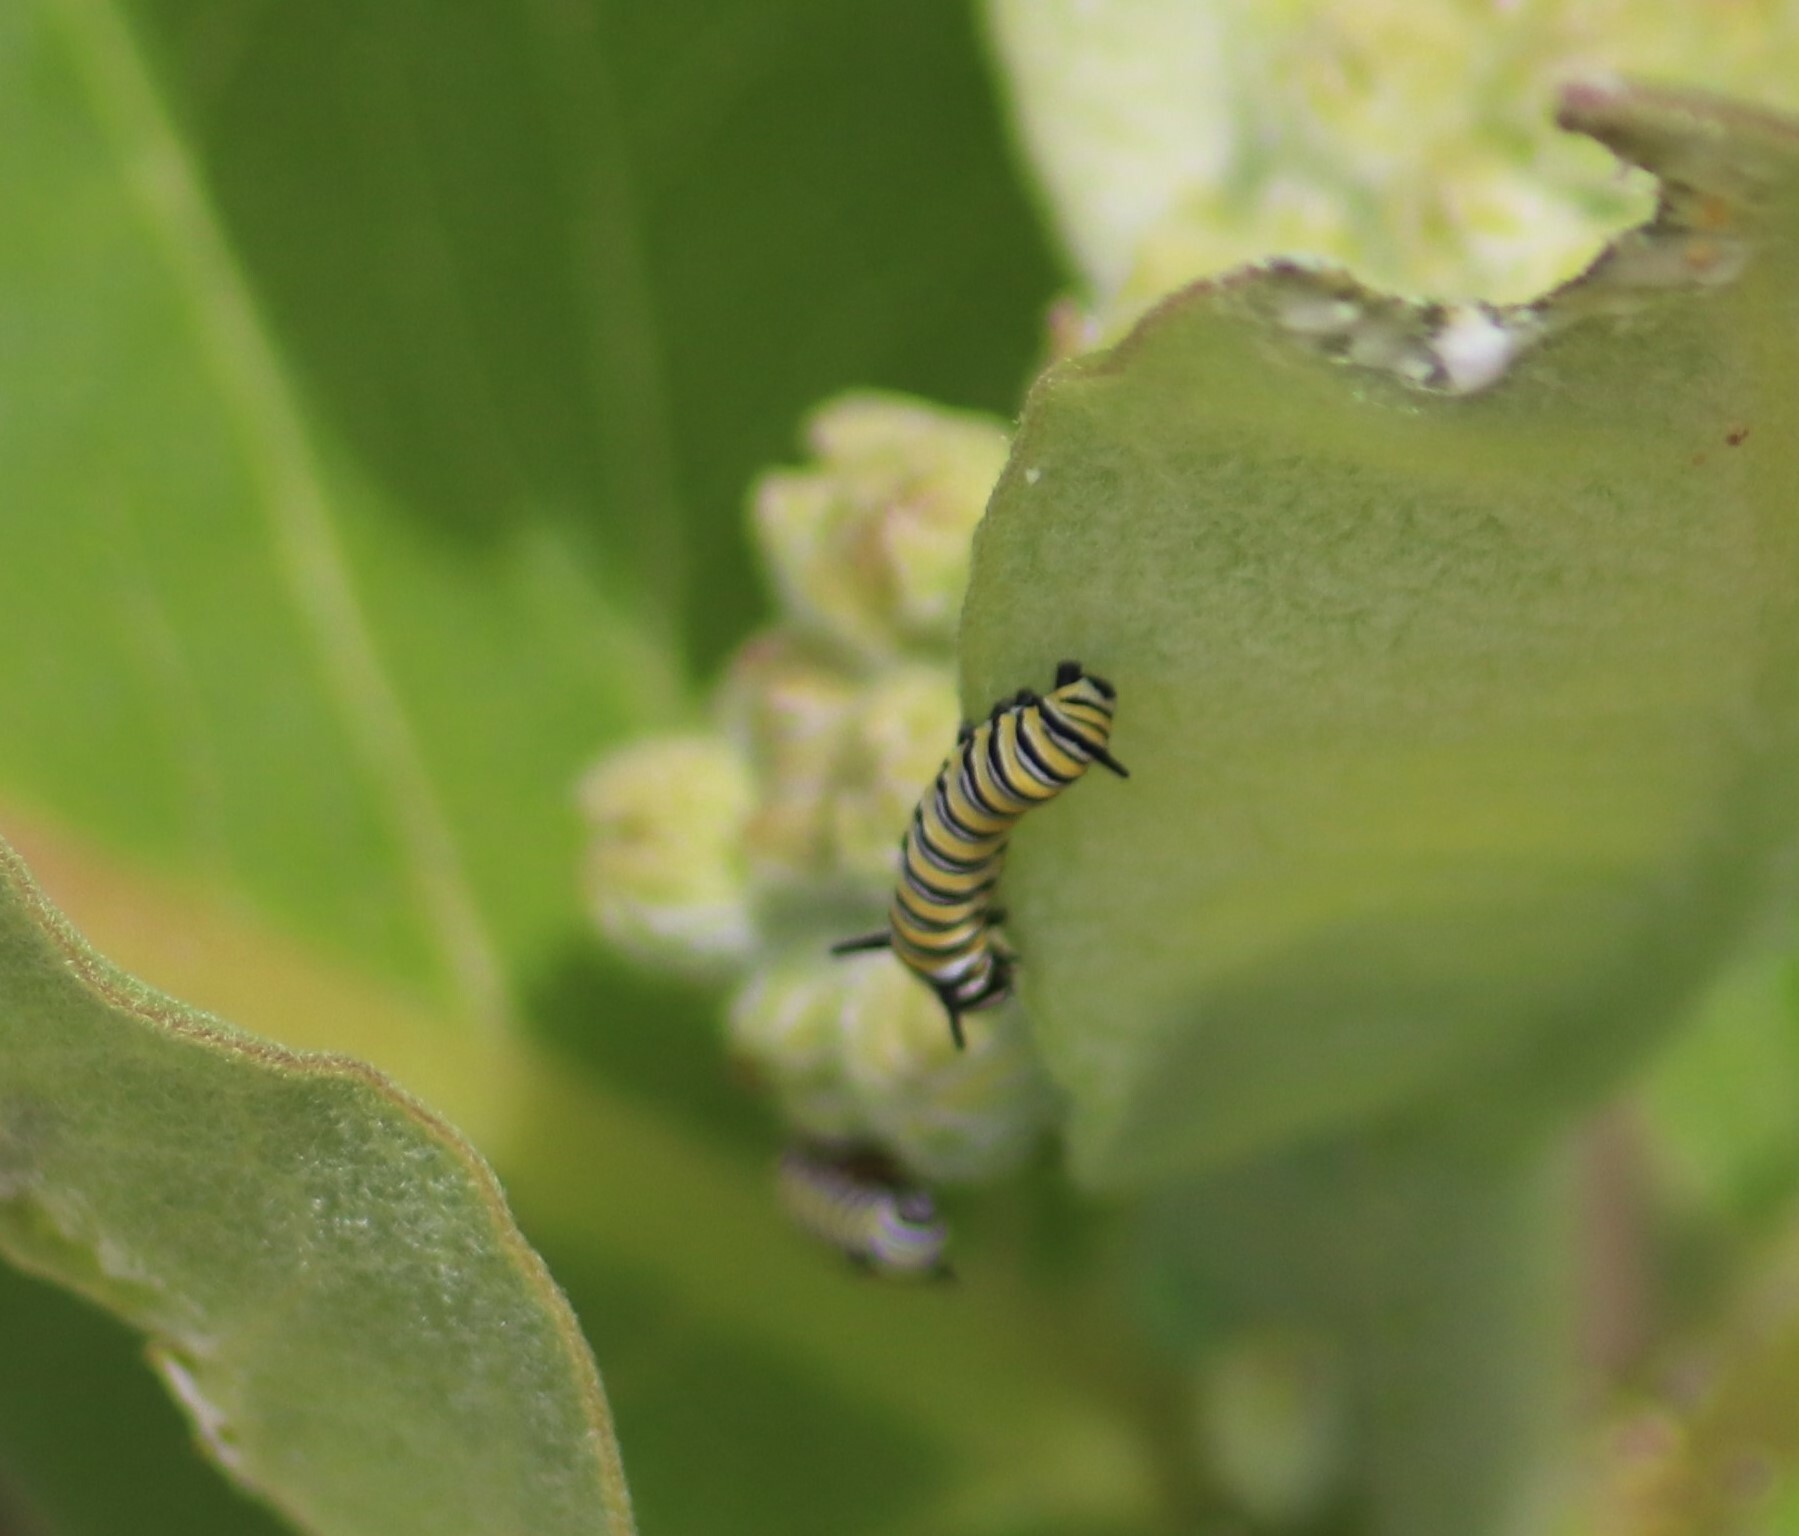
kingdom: Animalia
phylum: Arthropoda
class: Insecta
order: Lepidoptera
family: Nymphalidae
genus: Danaus
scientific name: Danaus plexippus
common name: Monarch
